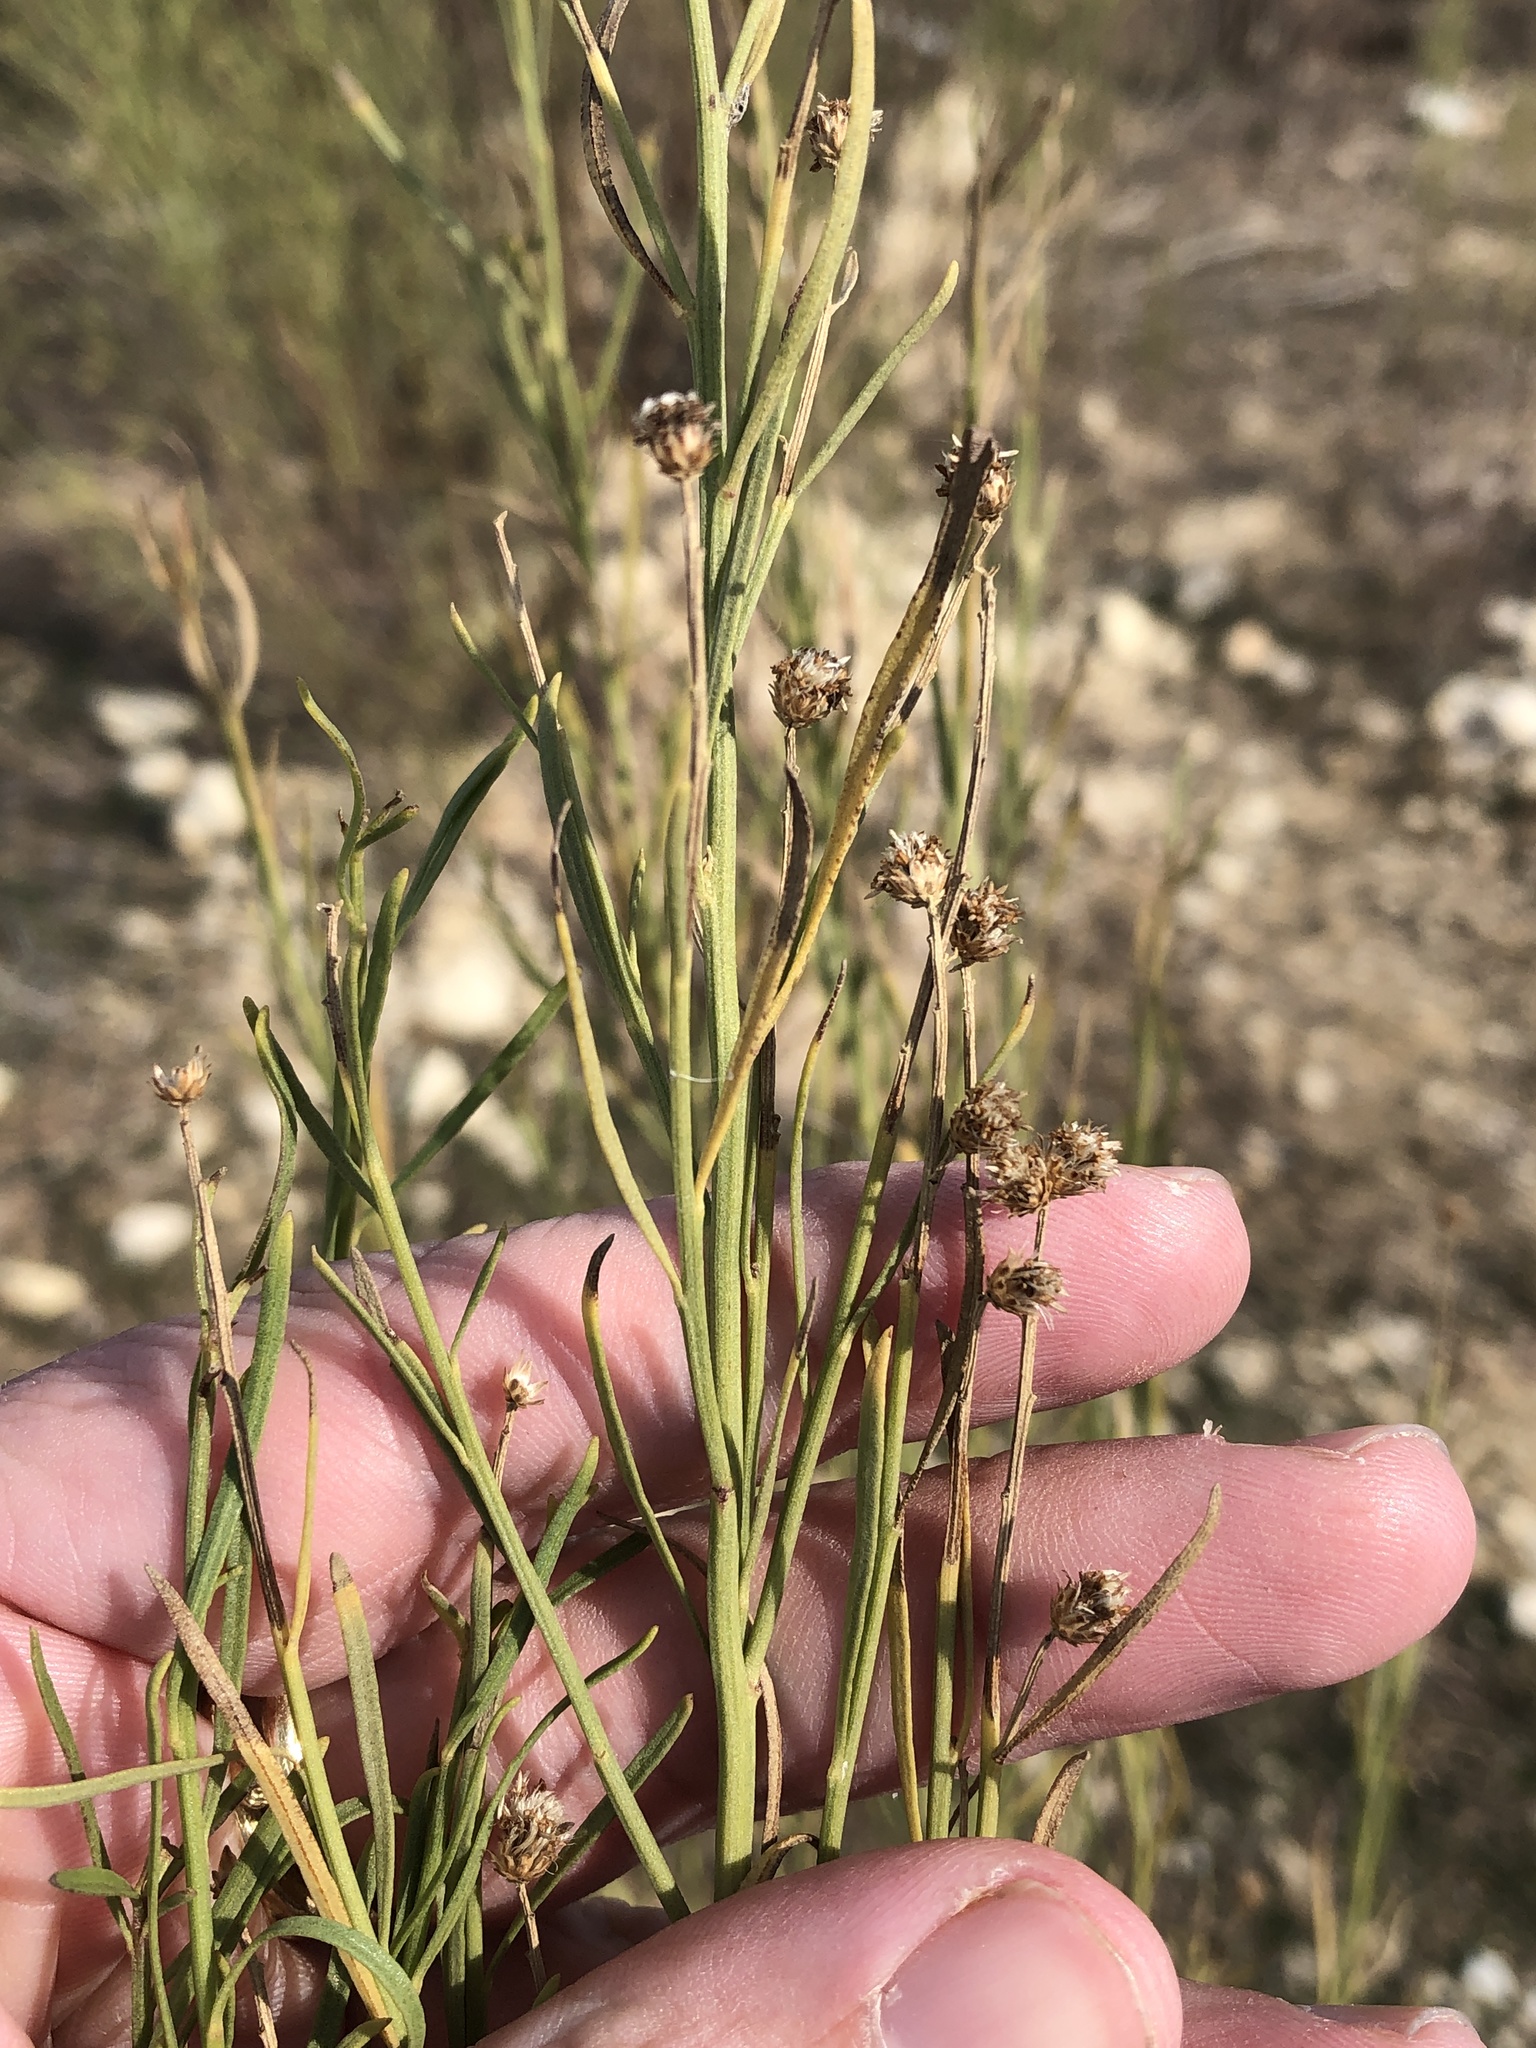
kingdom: Plantae
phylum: Tracheophyta
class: Magnoliopsida
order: Asterales
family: Asteraceae
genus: Baccharis
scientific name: Baccharis neglecta
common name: Roosevelt-weed
